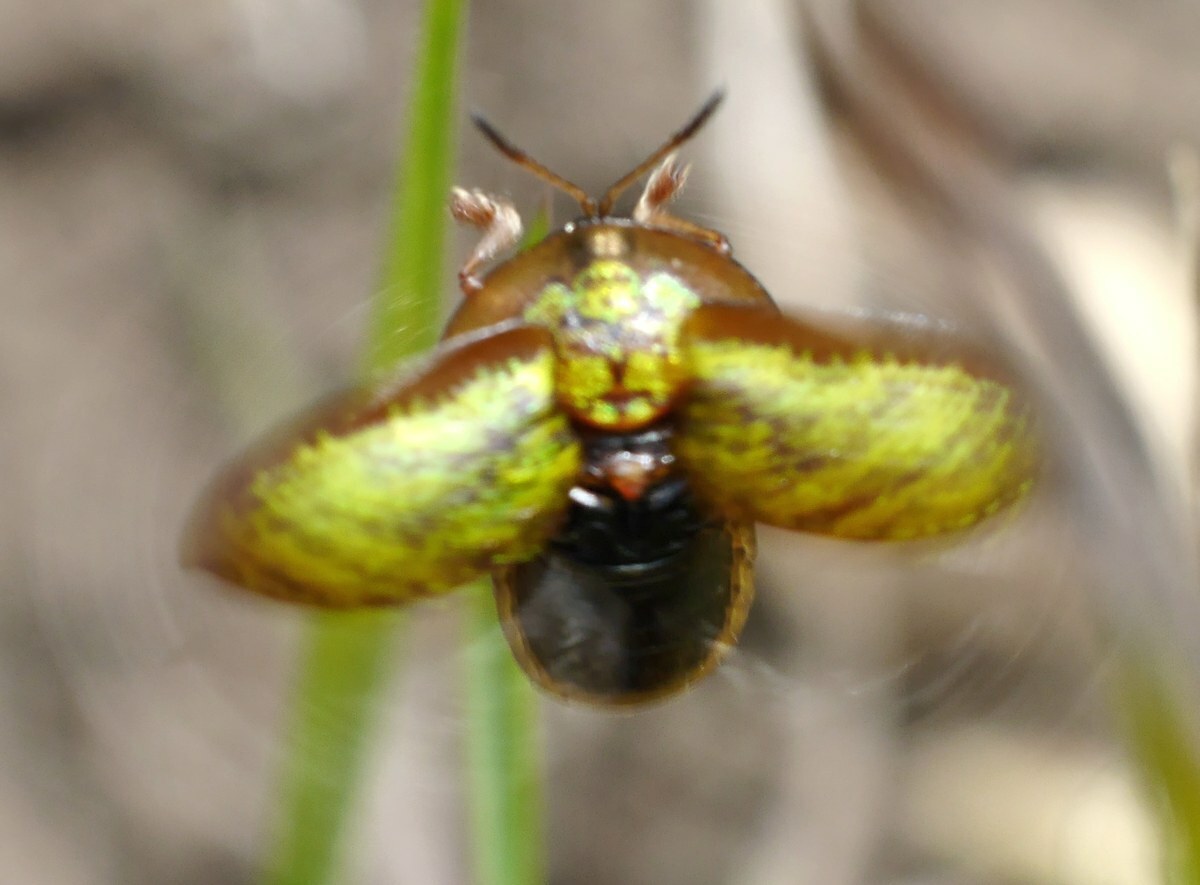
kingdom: Animalia
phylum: Arthropoda
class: Insecta
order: Coleoptera
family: Chrysomelidae
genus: Cassida
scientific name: Cassida canaliculata
